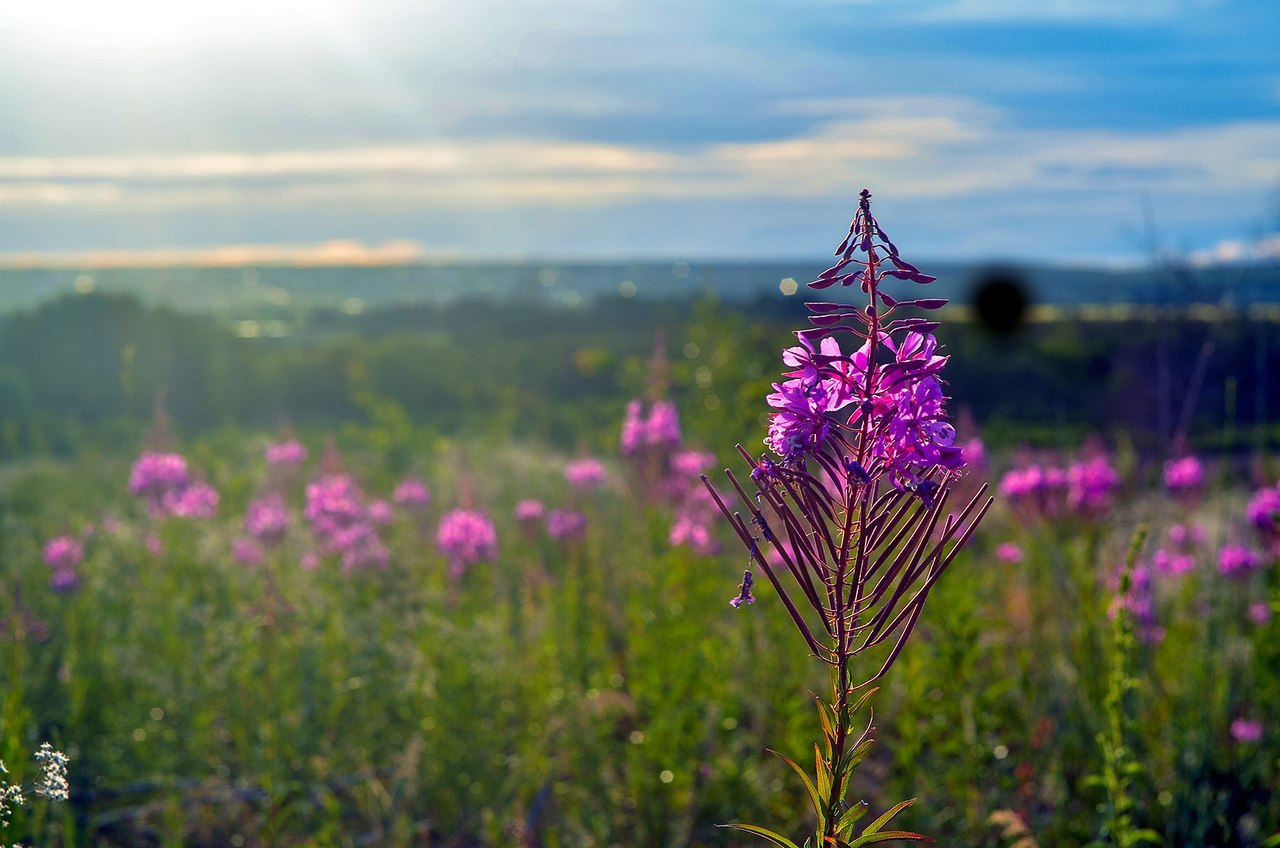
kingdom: Plantae
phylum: Tracheophyta
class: Magnoliopsida
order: Myrtales
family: Onagraceae
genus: Chamaenerion
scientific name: Chamaenerion angustifolium
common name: Fireweed
